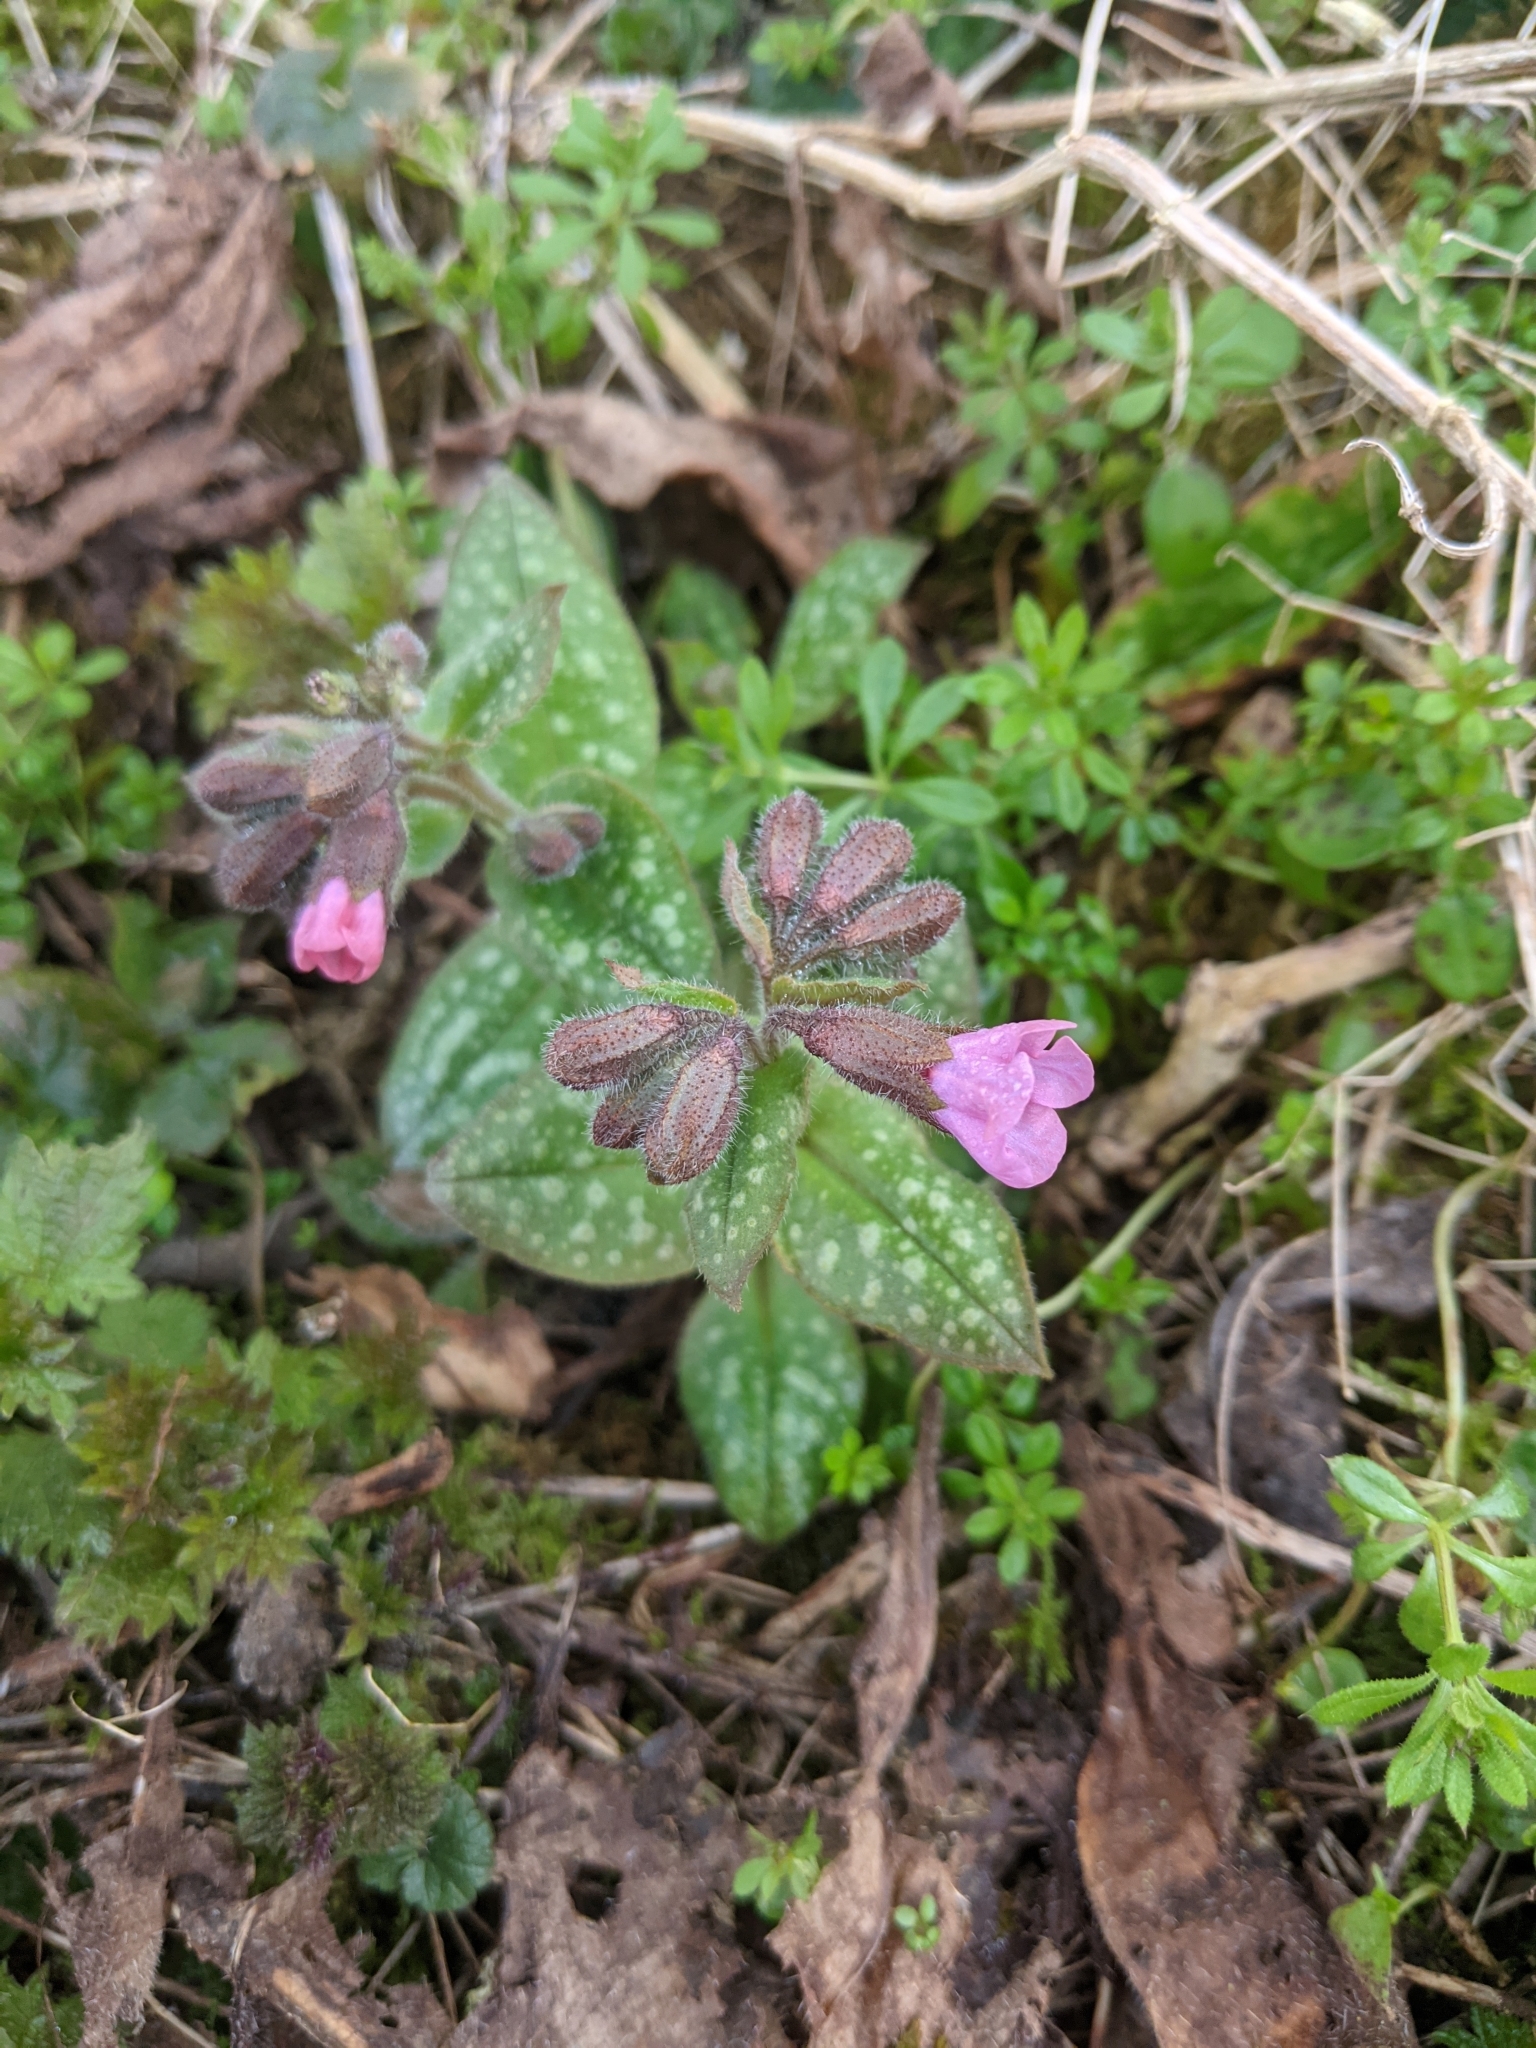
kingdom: Plantae
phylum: Tracheophyta
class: Magnoliopsida
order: Boraginales
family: Boraginaceae
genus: Pulmonaria
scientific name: Pulmonaria officinalis
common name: Lungwort
